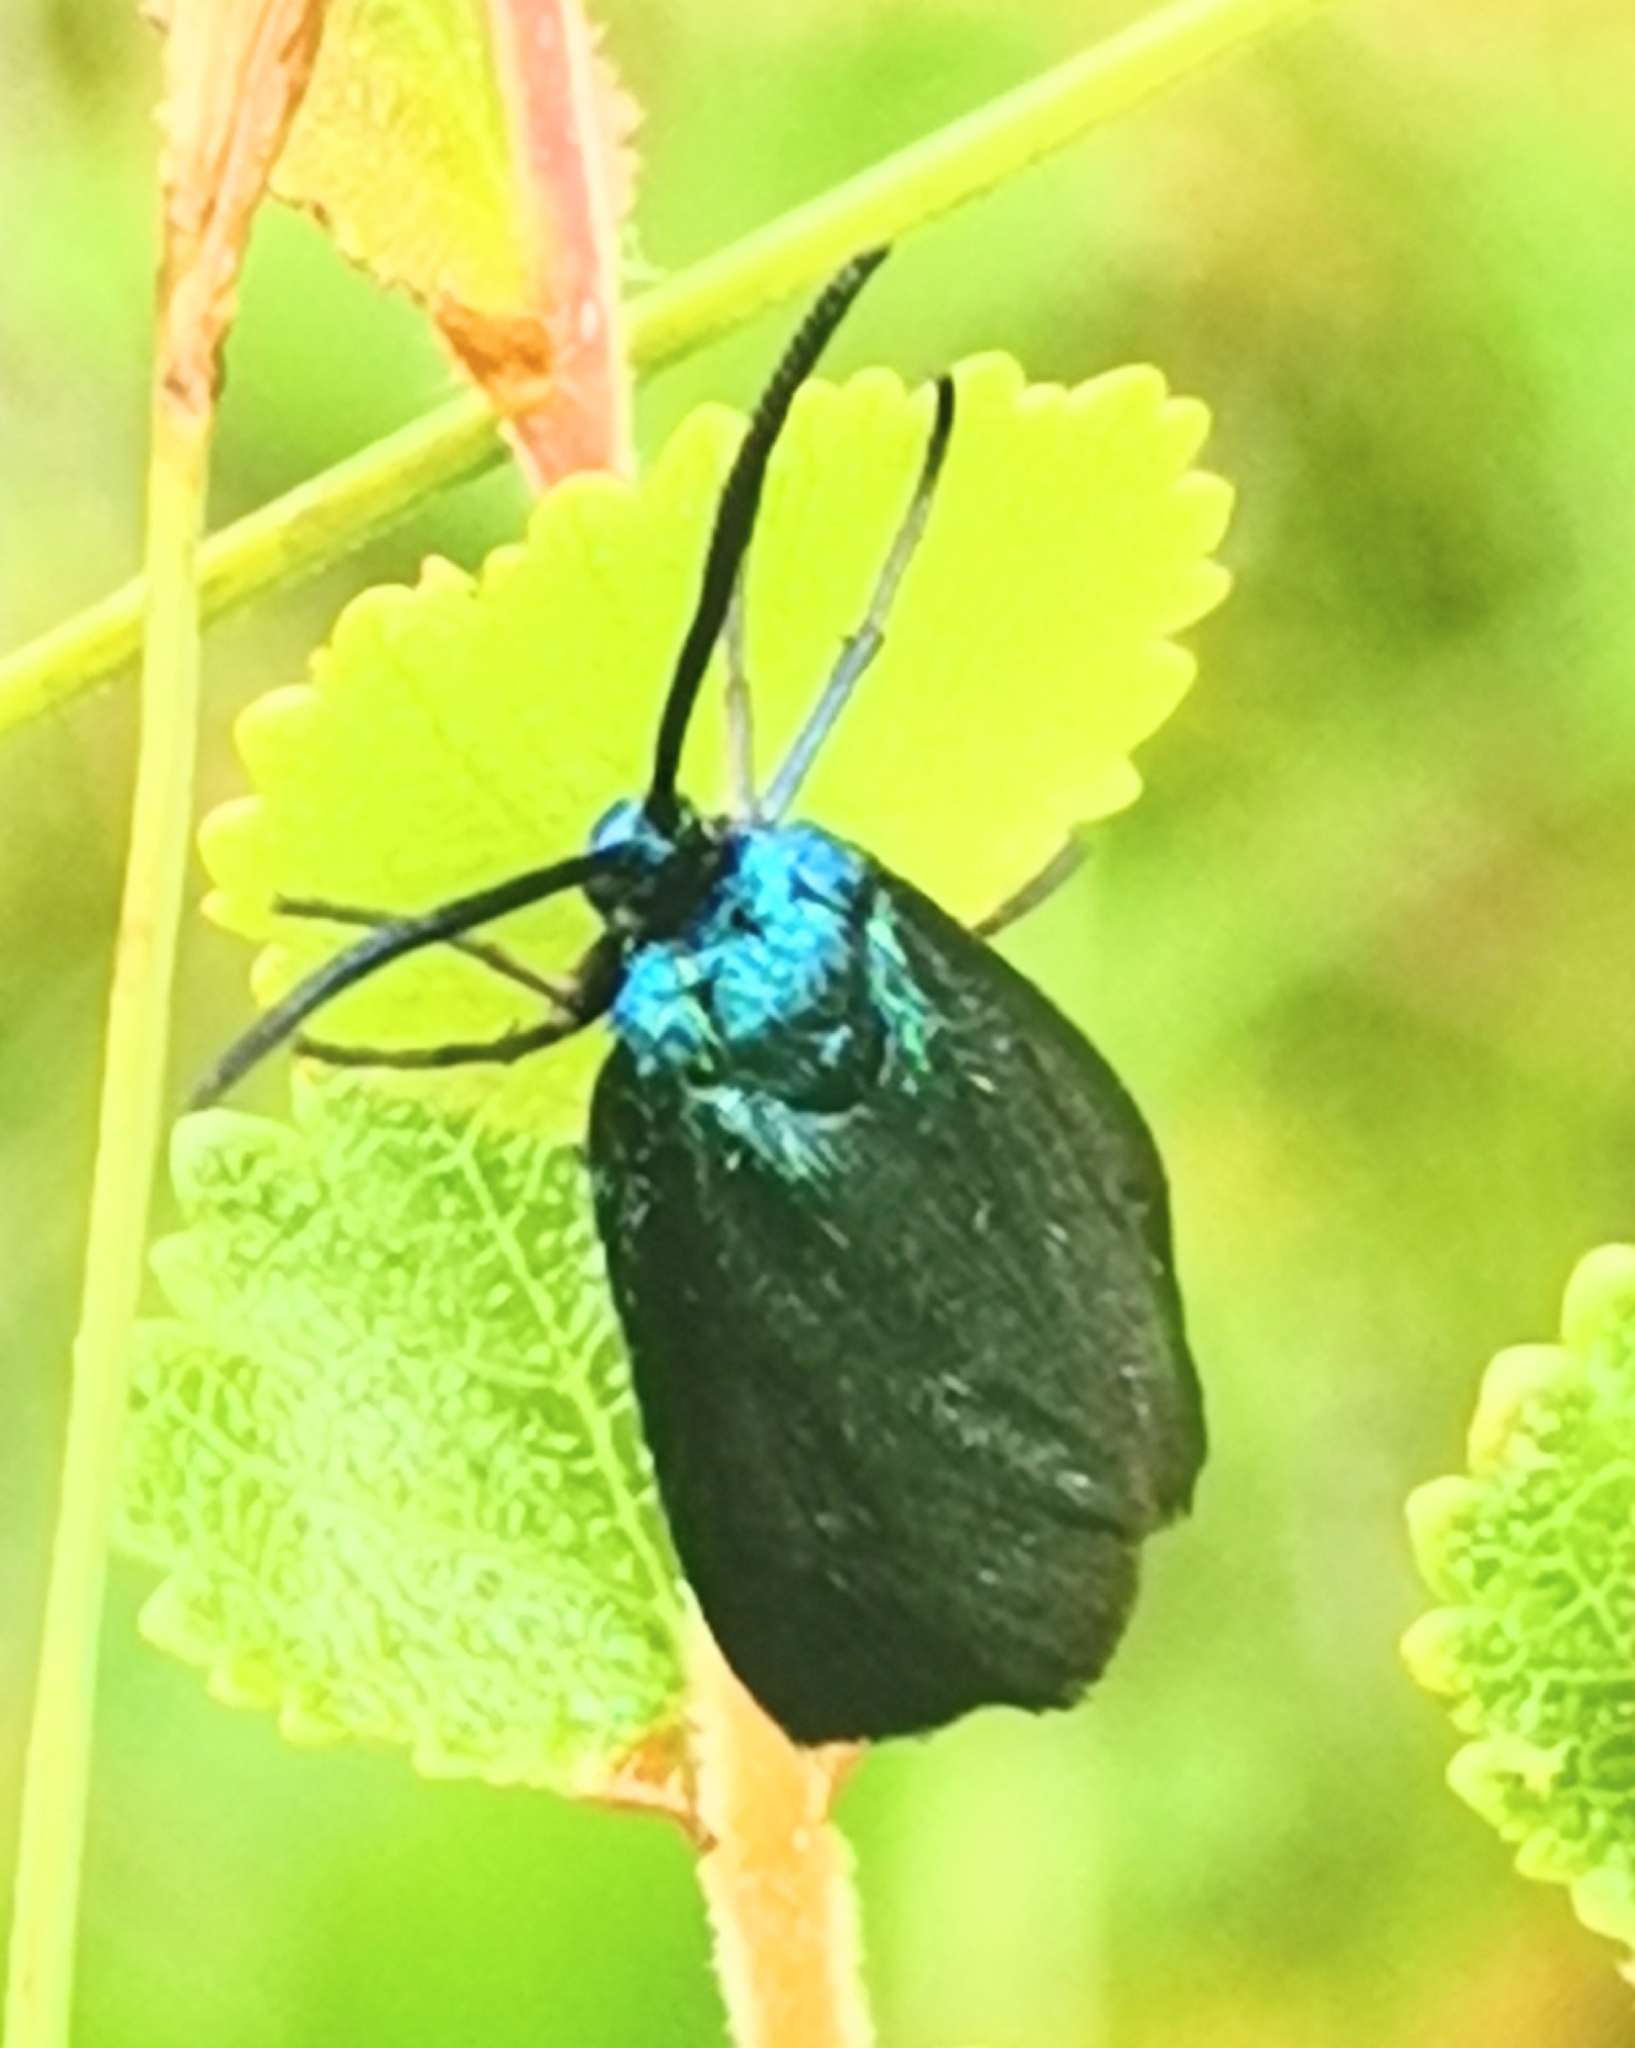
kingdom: Animalia
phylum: Arthropoda
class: Insecta
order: Lepidoptera
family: Zygaenidae
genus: Adscita
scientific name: Adscita statices
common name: Forester
